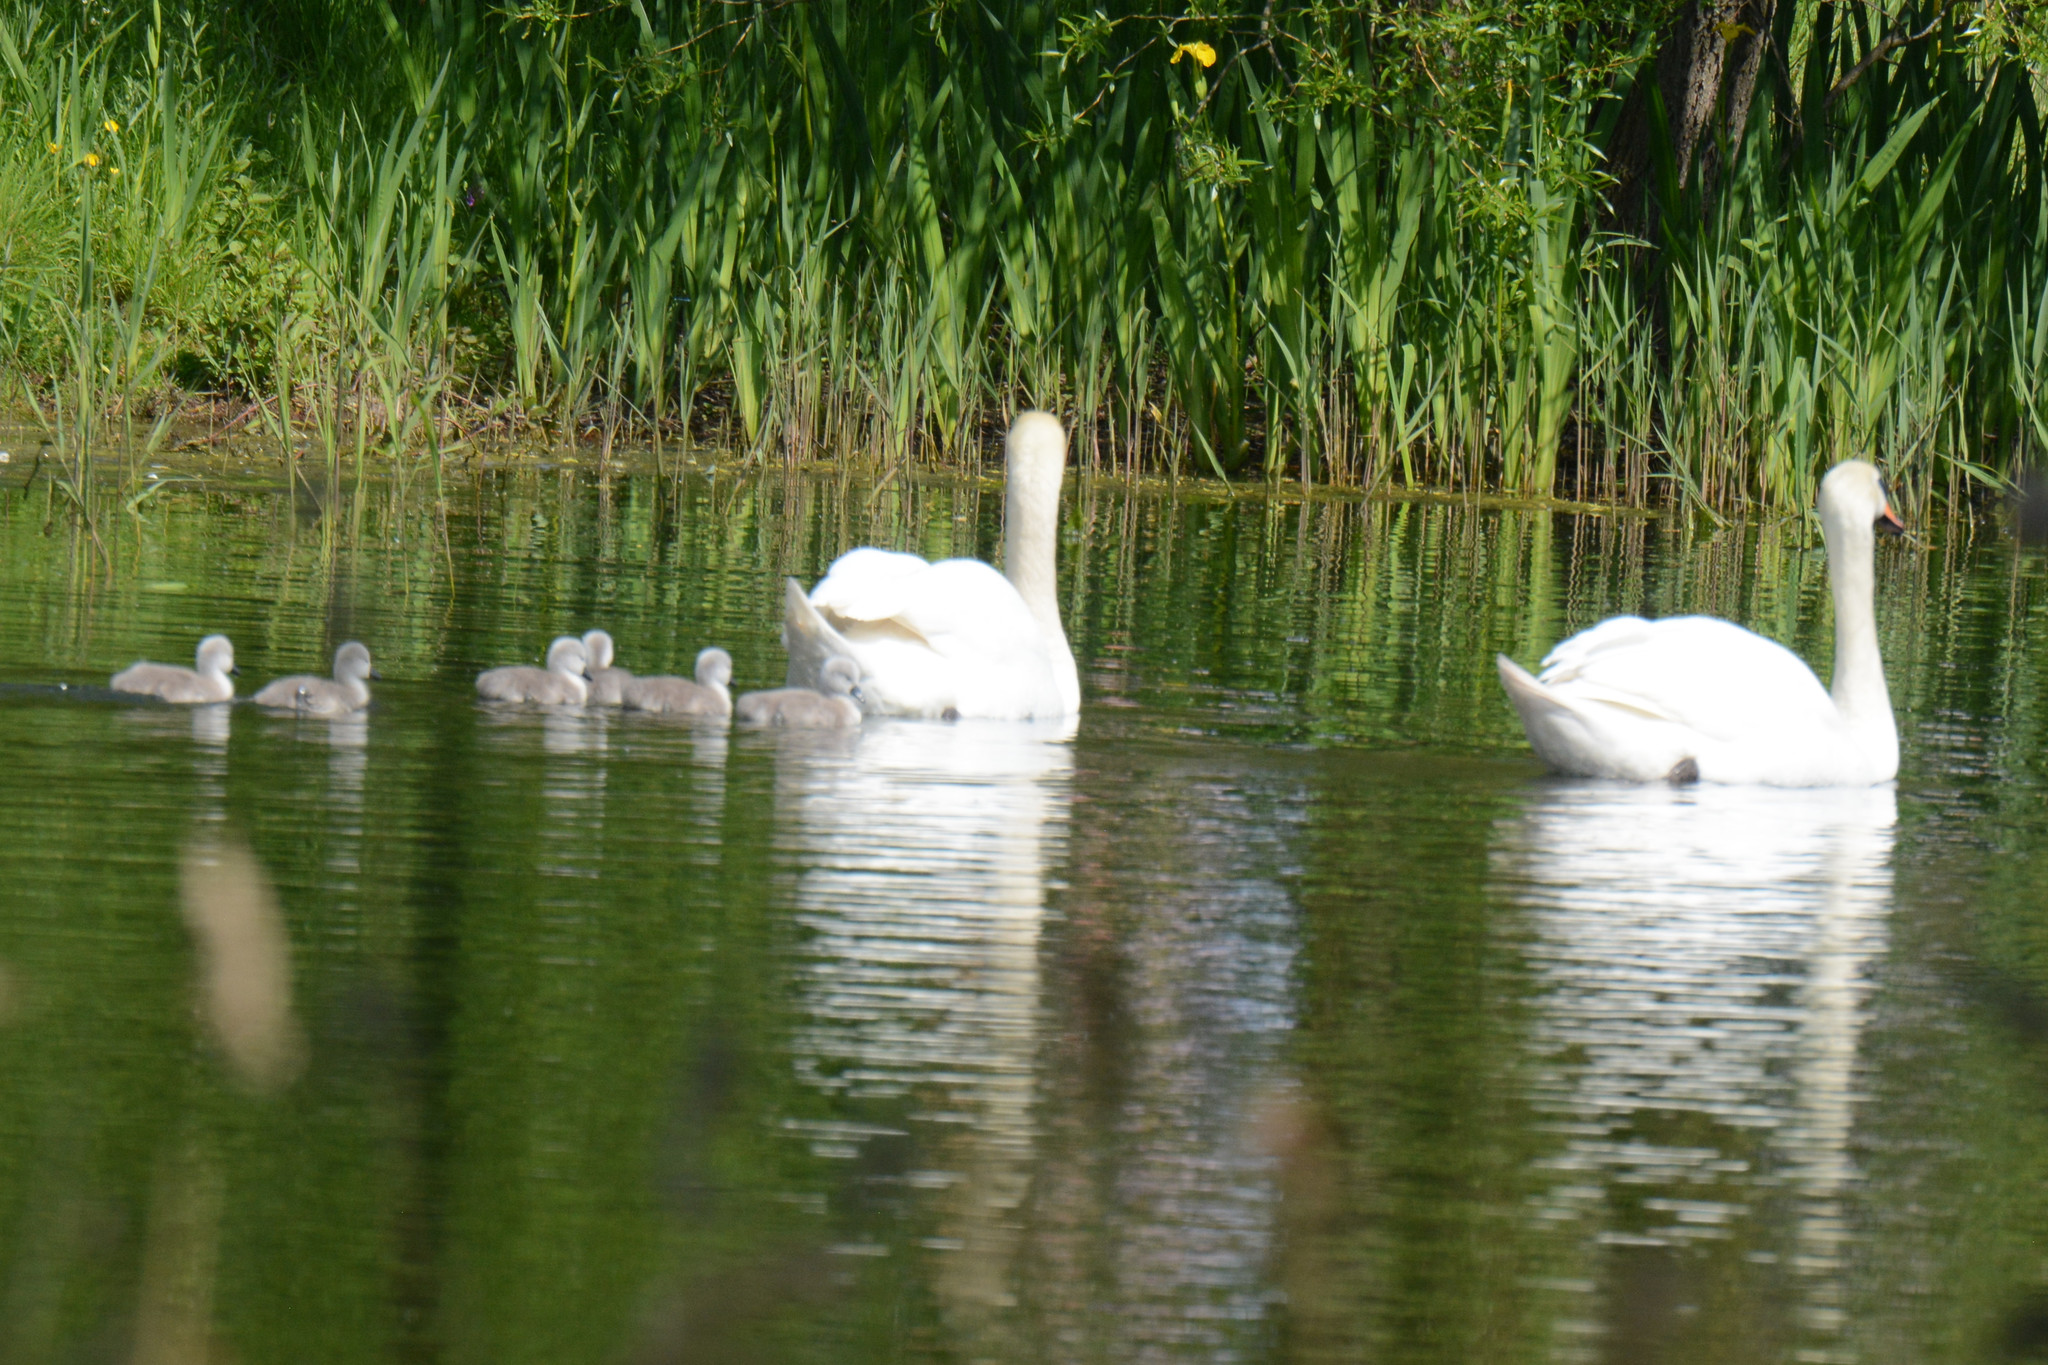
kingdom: Animalia
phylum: Chordata
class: Aves
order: Anseriformes
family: Anatidae
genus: Cygnus
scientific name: Cygnus olor
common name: Mute swan
